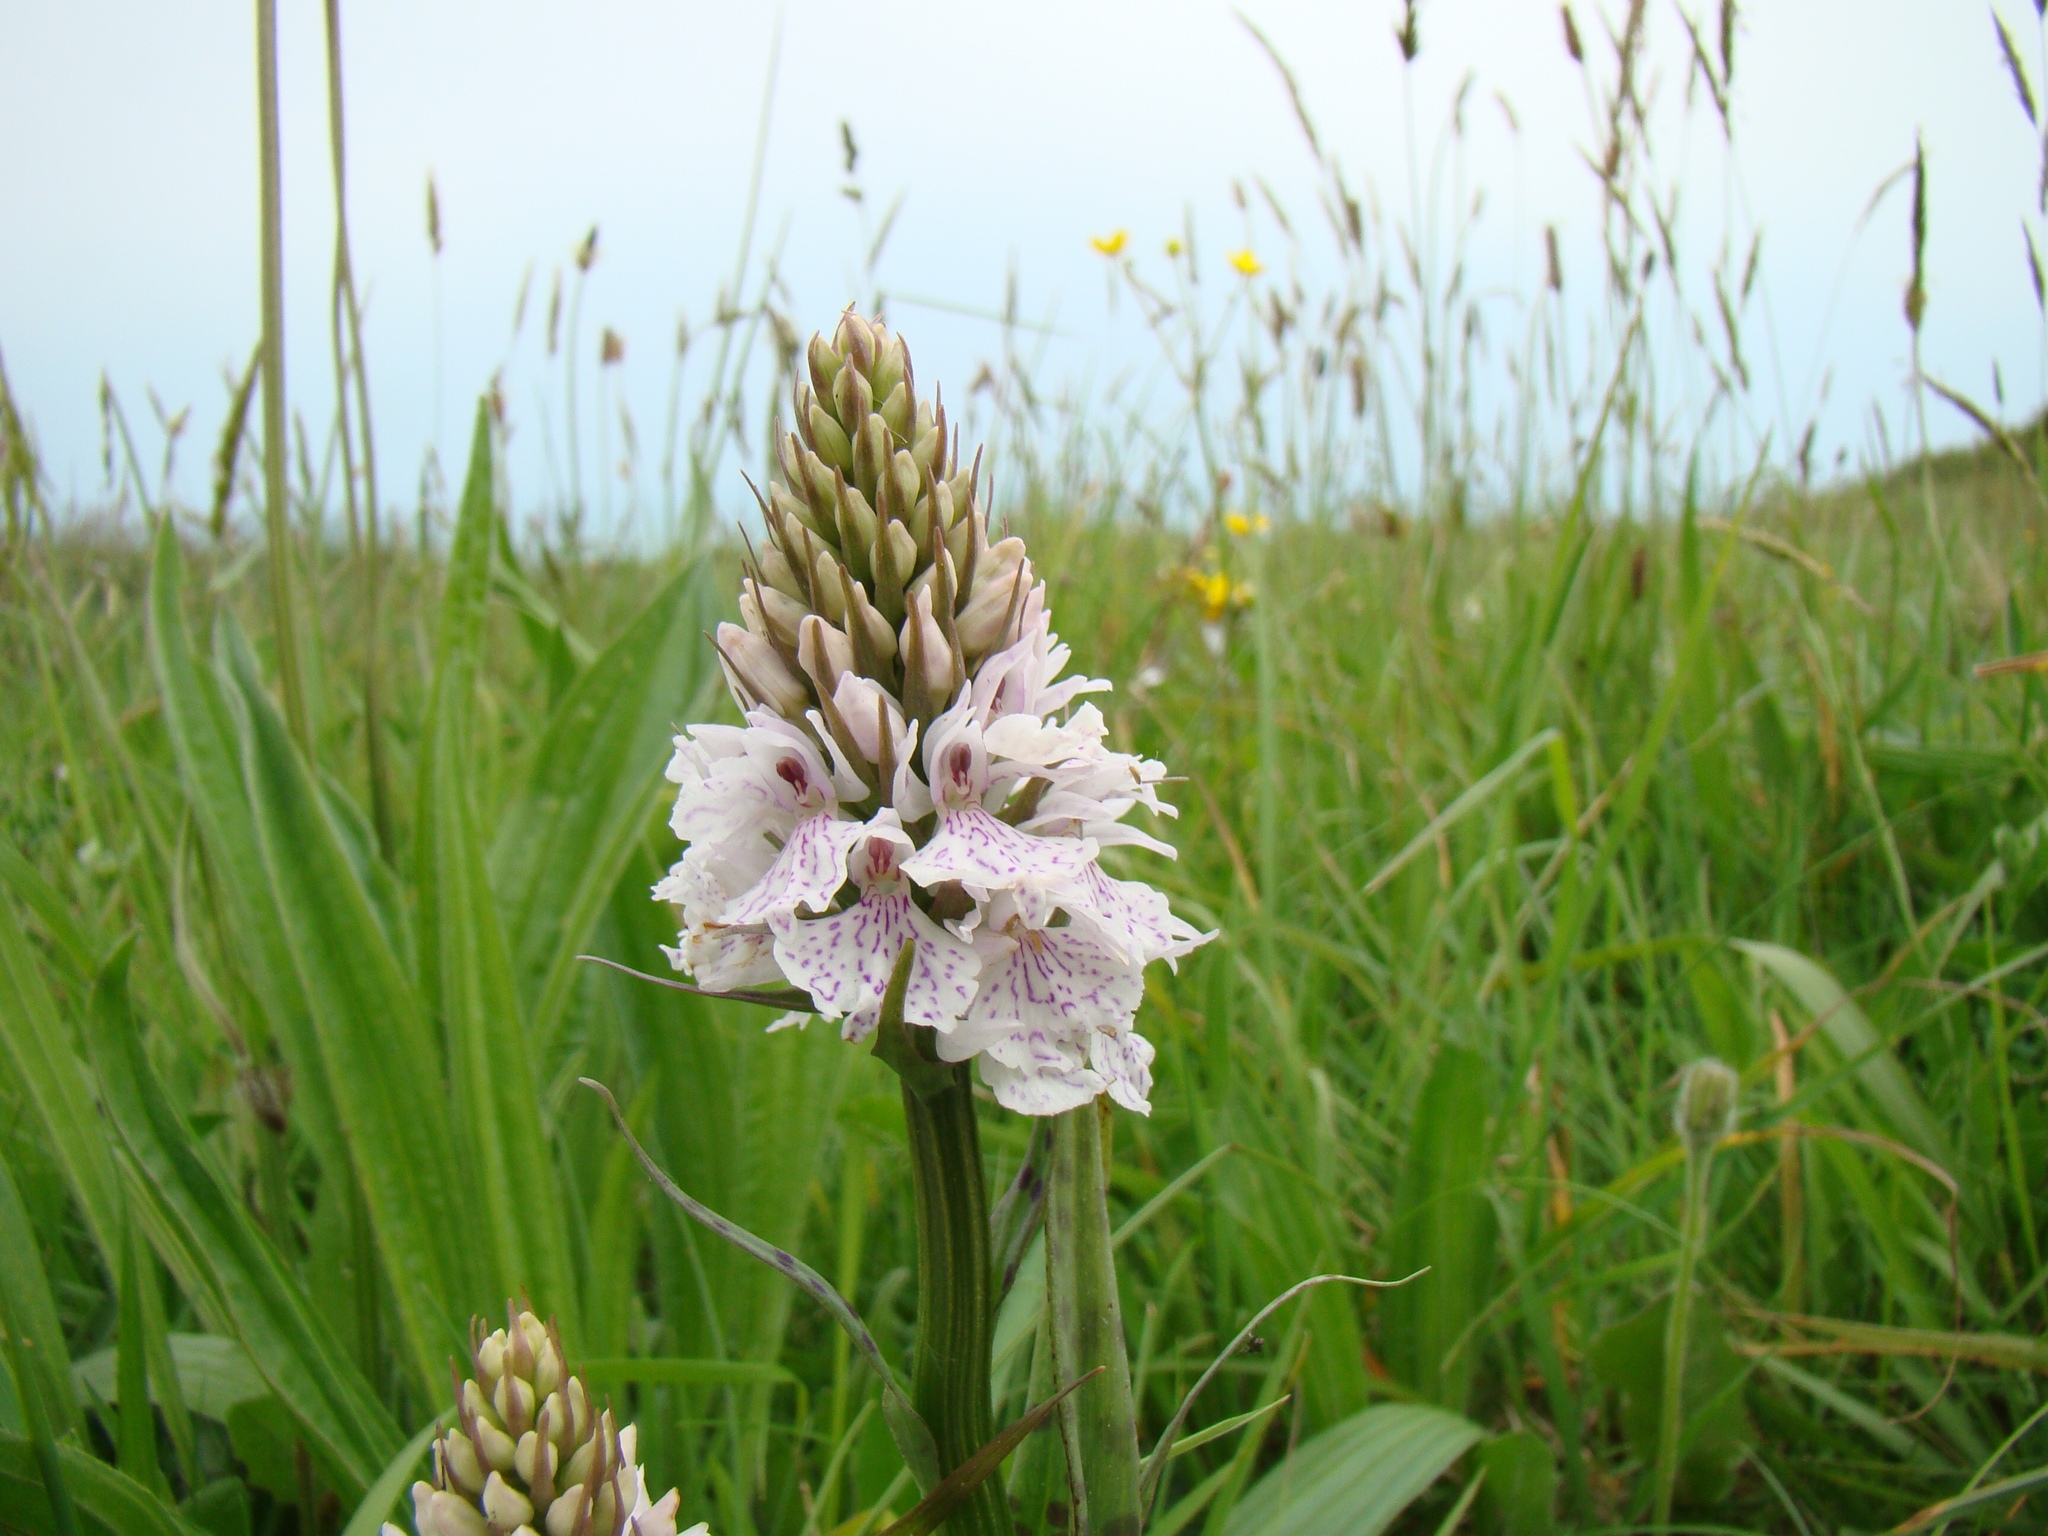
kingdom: Plantae
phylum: Tracheophyta
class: Liliopsida
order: Asparagales
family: Orchidaceae
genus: Dactylorhiza
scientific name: Dactylorhiza maculata
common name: Heath spotted-orchid
